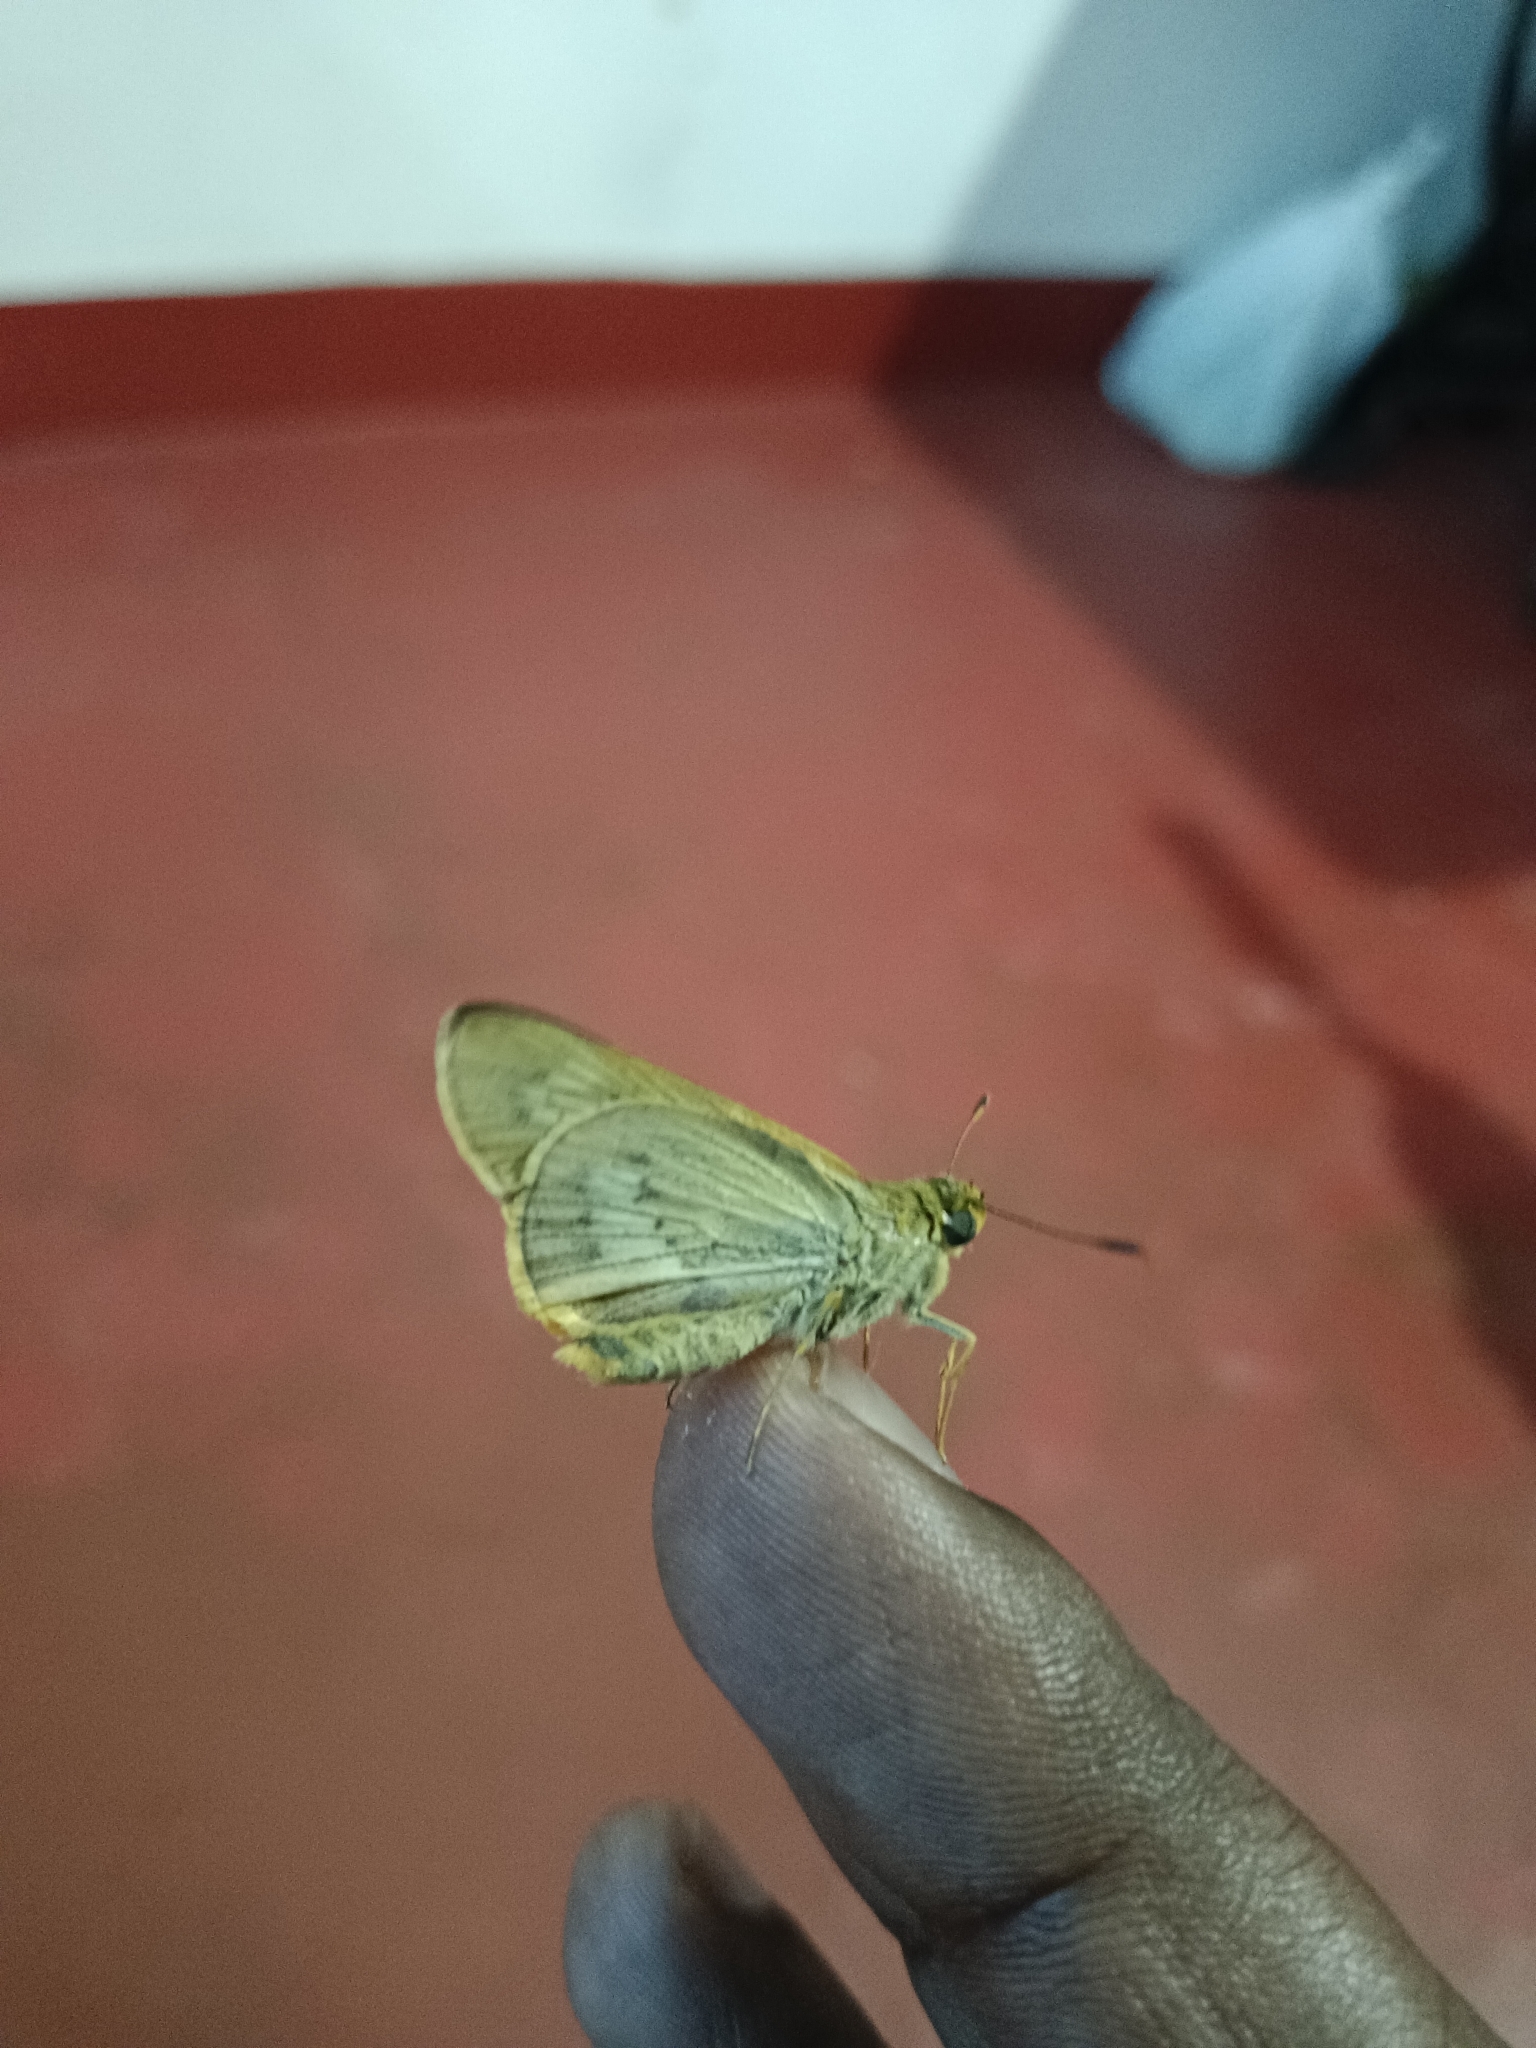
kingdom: Animalia
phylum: Arthropoda
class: Insecta
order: Lepidoptera
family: Hesperiidae
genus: Cephrenes
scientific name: Cephrenes
